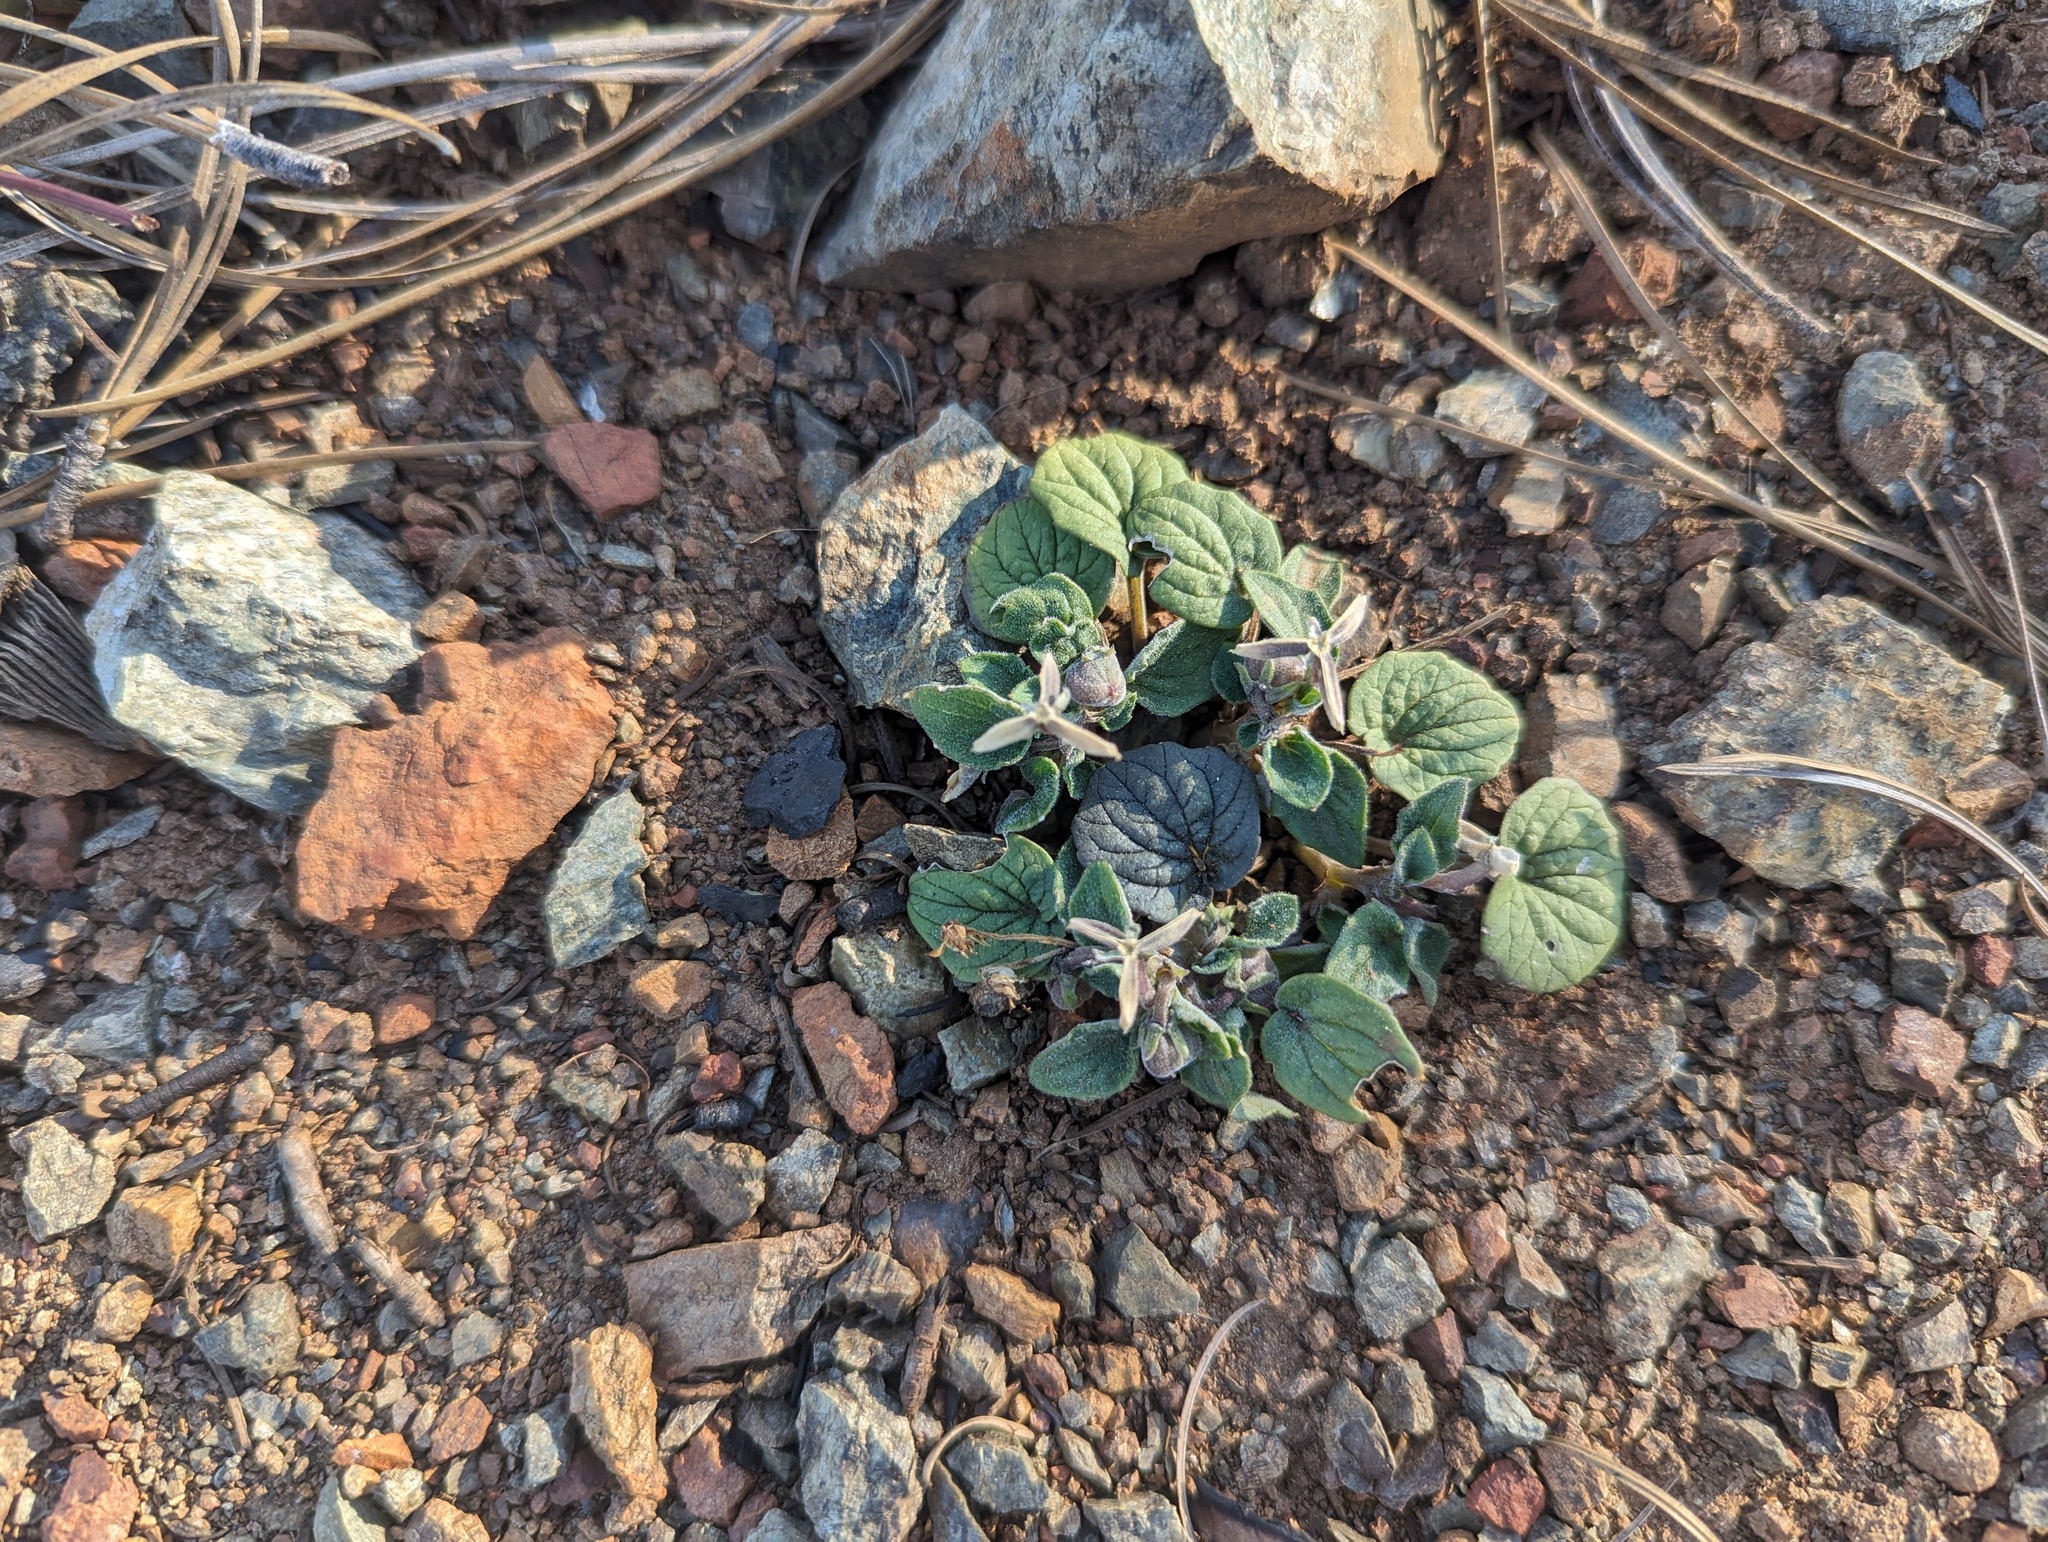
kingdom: Plantae
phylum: Tracheophyta
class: Magnoliopsida
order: Malpighiales
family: Violaceae
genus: Viola
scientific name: Viola purpurea
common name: Pine violet
